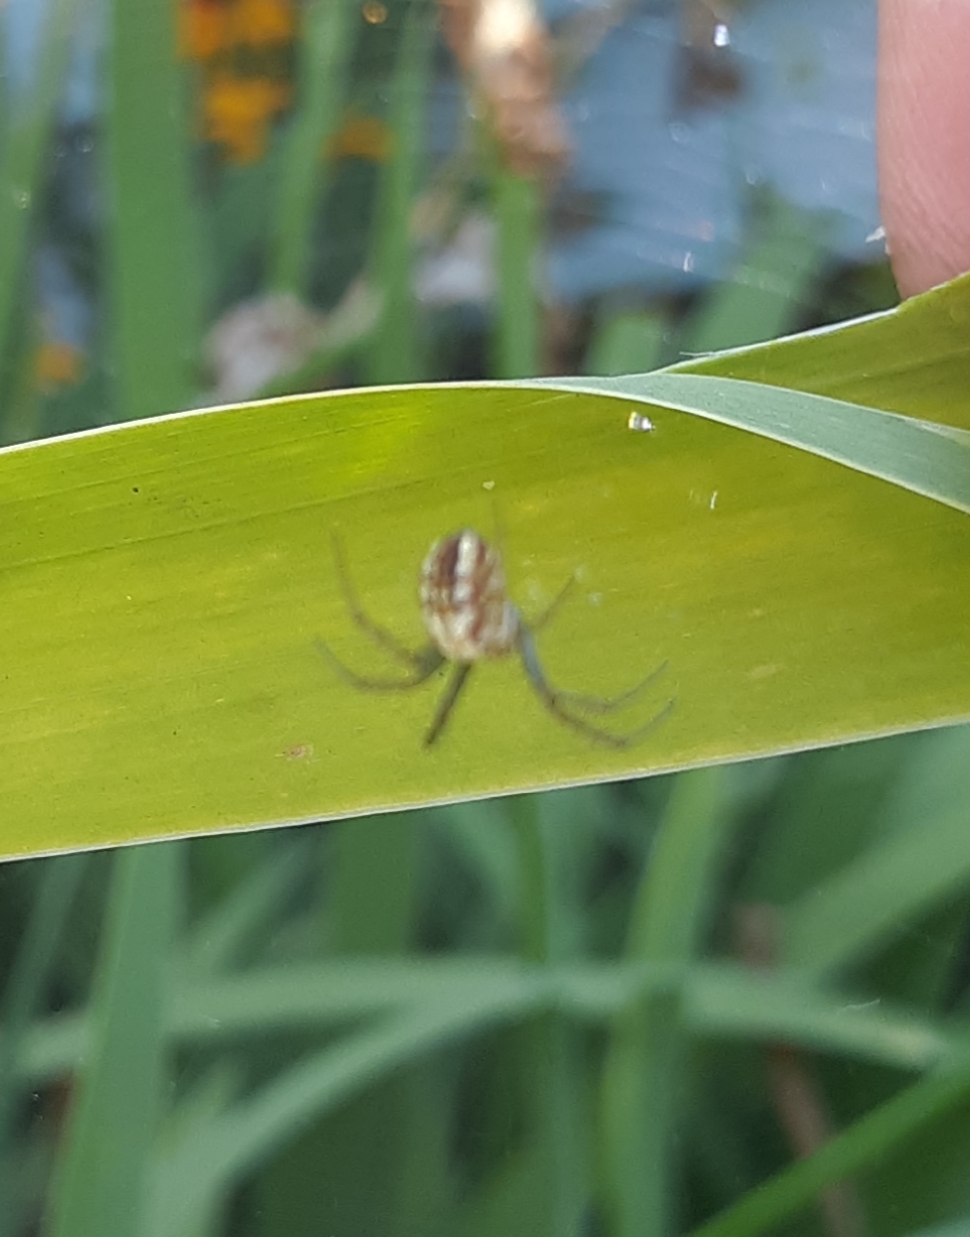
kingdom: Animalia
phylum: Arthropoda
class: Arachnida
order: Araneae
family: Araneidae
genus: Mangora
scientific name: Mangora gibberosa
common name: Lined orbweaver
